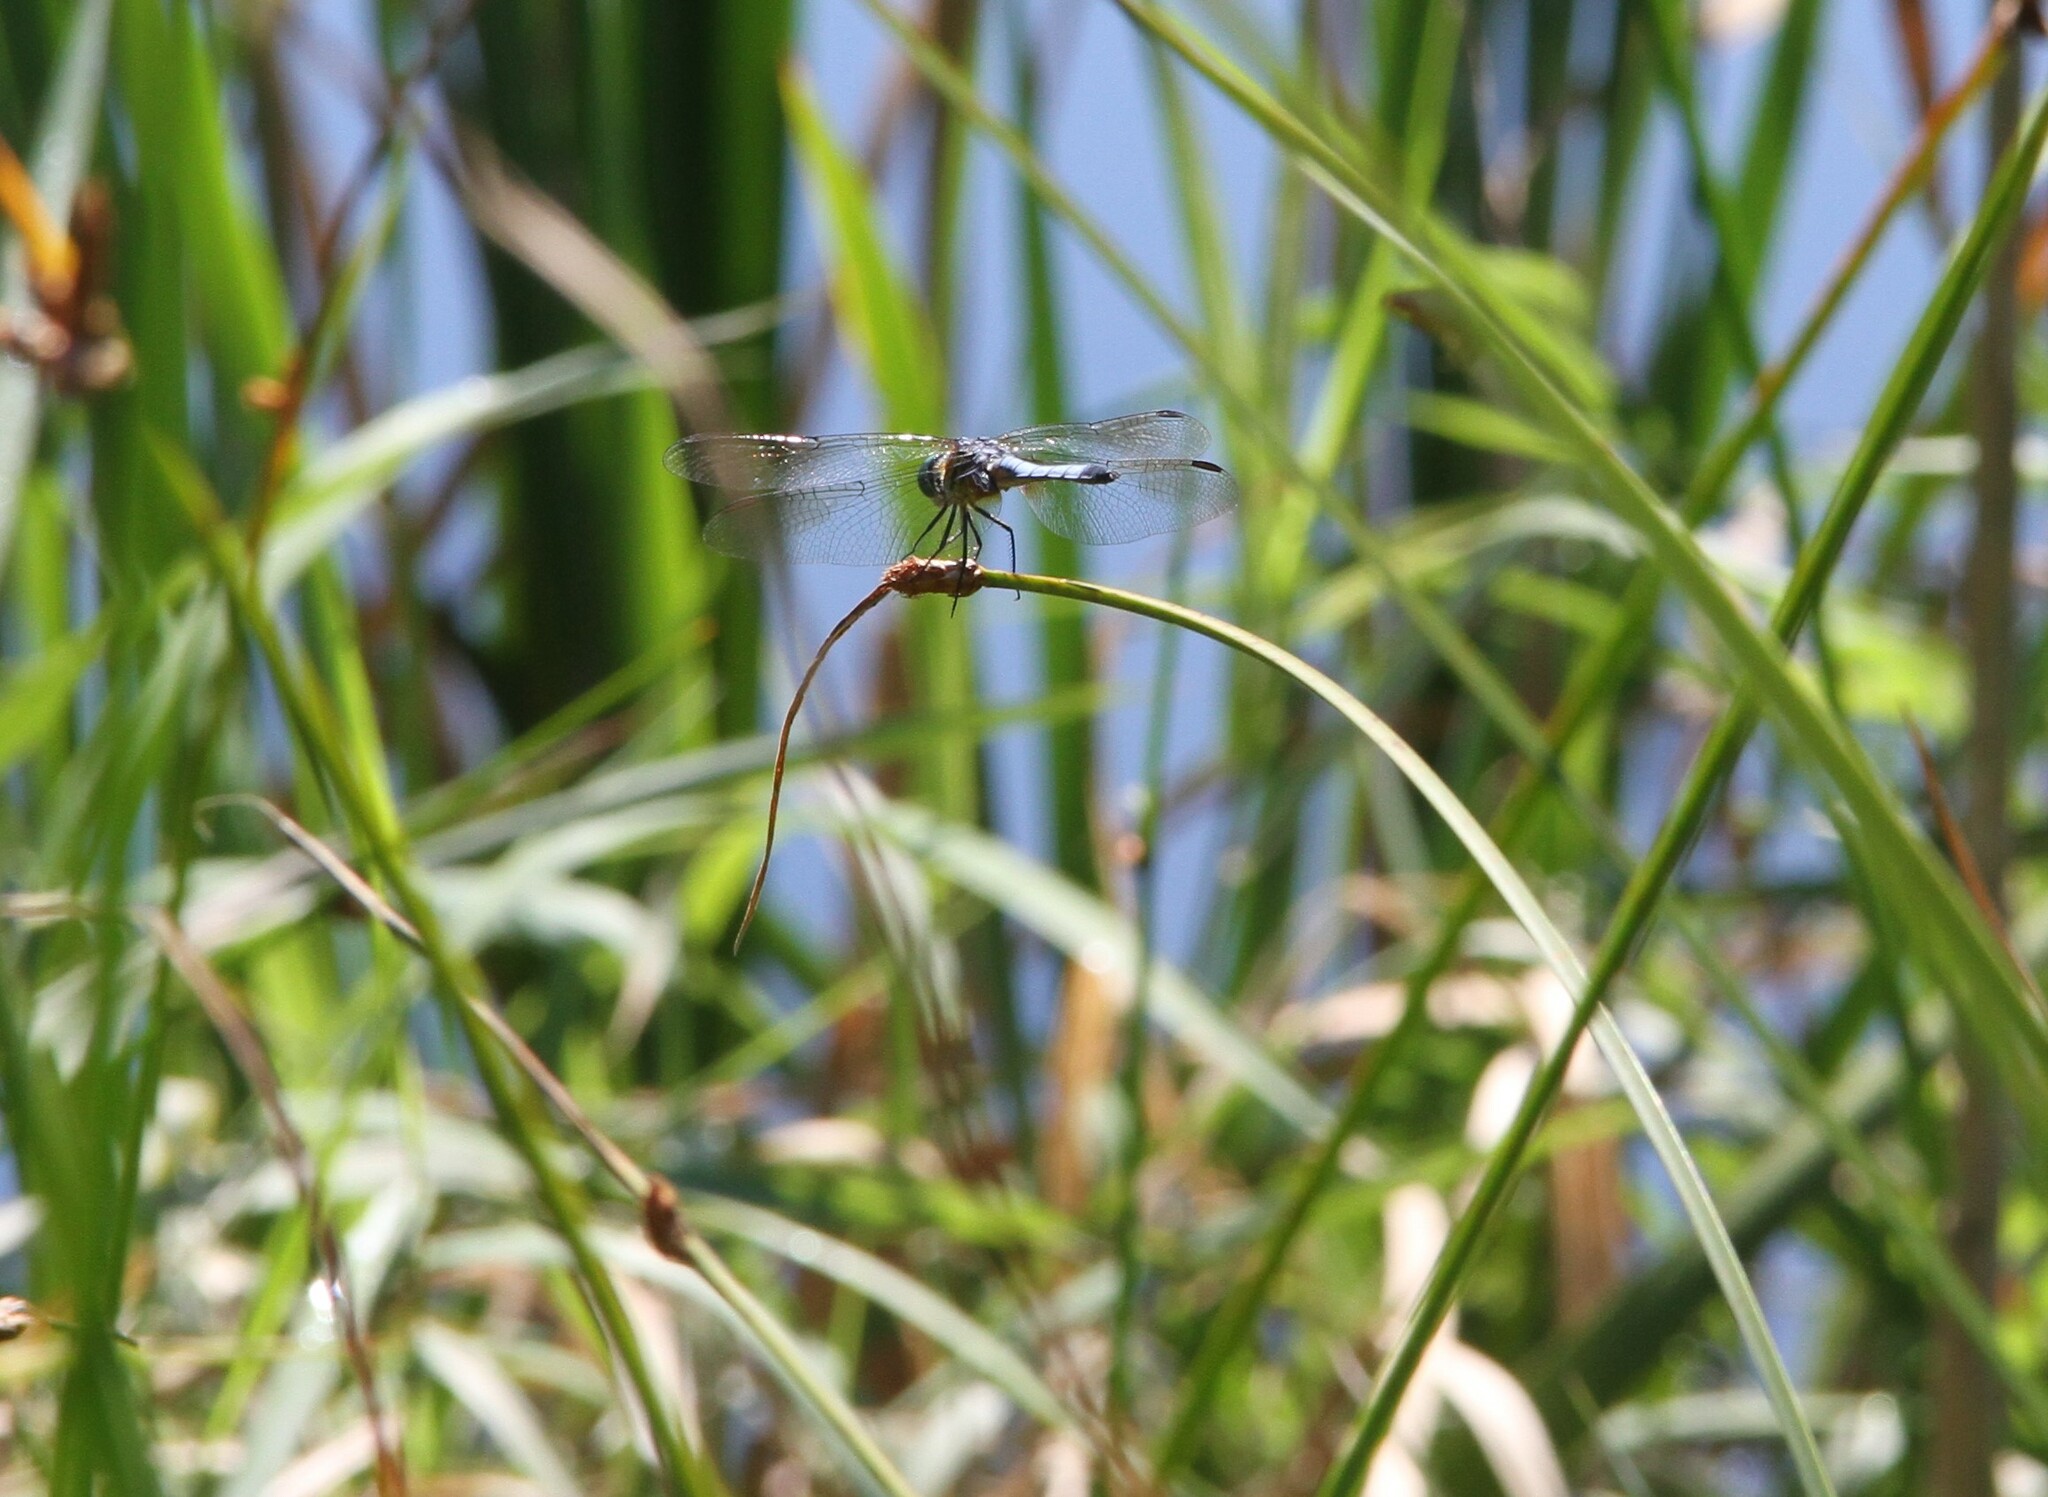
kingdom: Animalia
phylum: Arthropoda
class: Insecta
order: Odonata
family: Libellulidae
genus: Pachydiplax
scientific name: Pachydiplax longipennis
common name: Blue dasher
